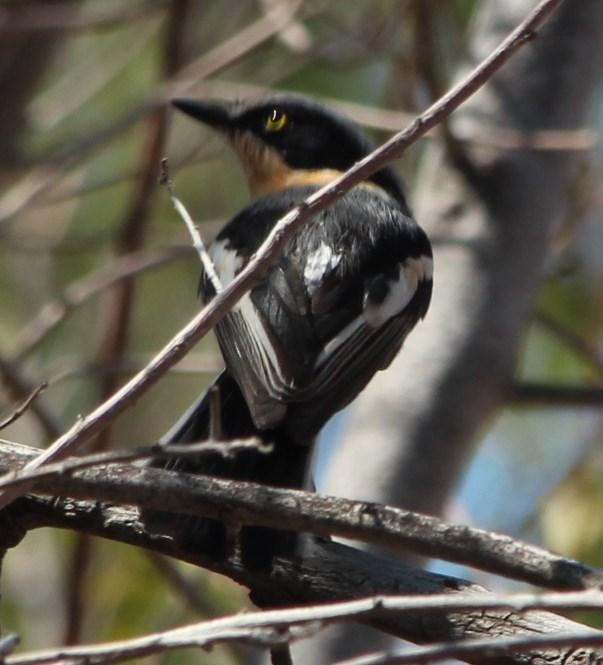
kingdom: Animalia
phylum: Chordata
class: Aves
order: Passeriformes
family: Platysteiridae
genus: Batis
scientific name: Batis pririt
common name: Pririt batis
